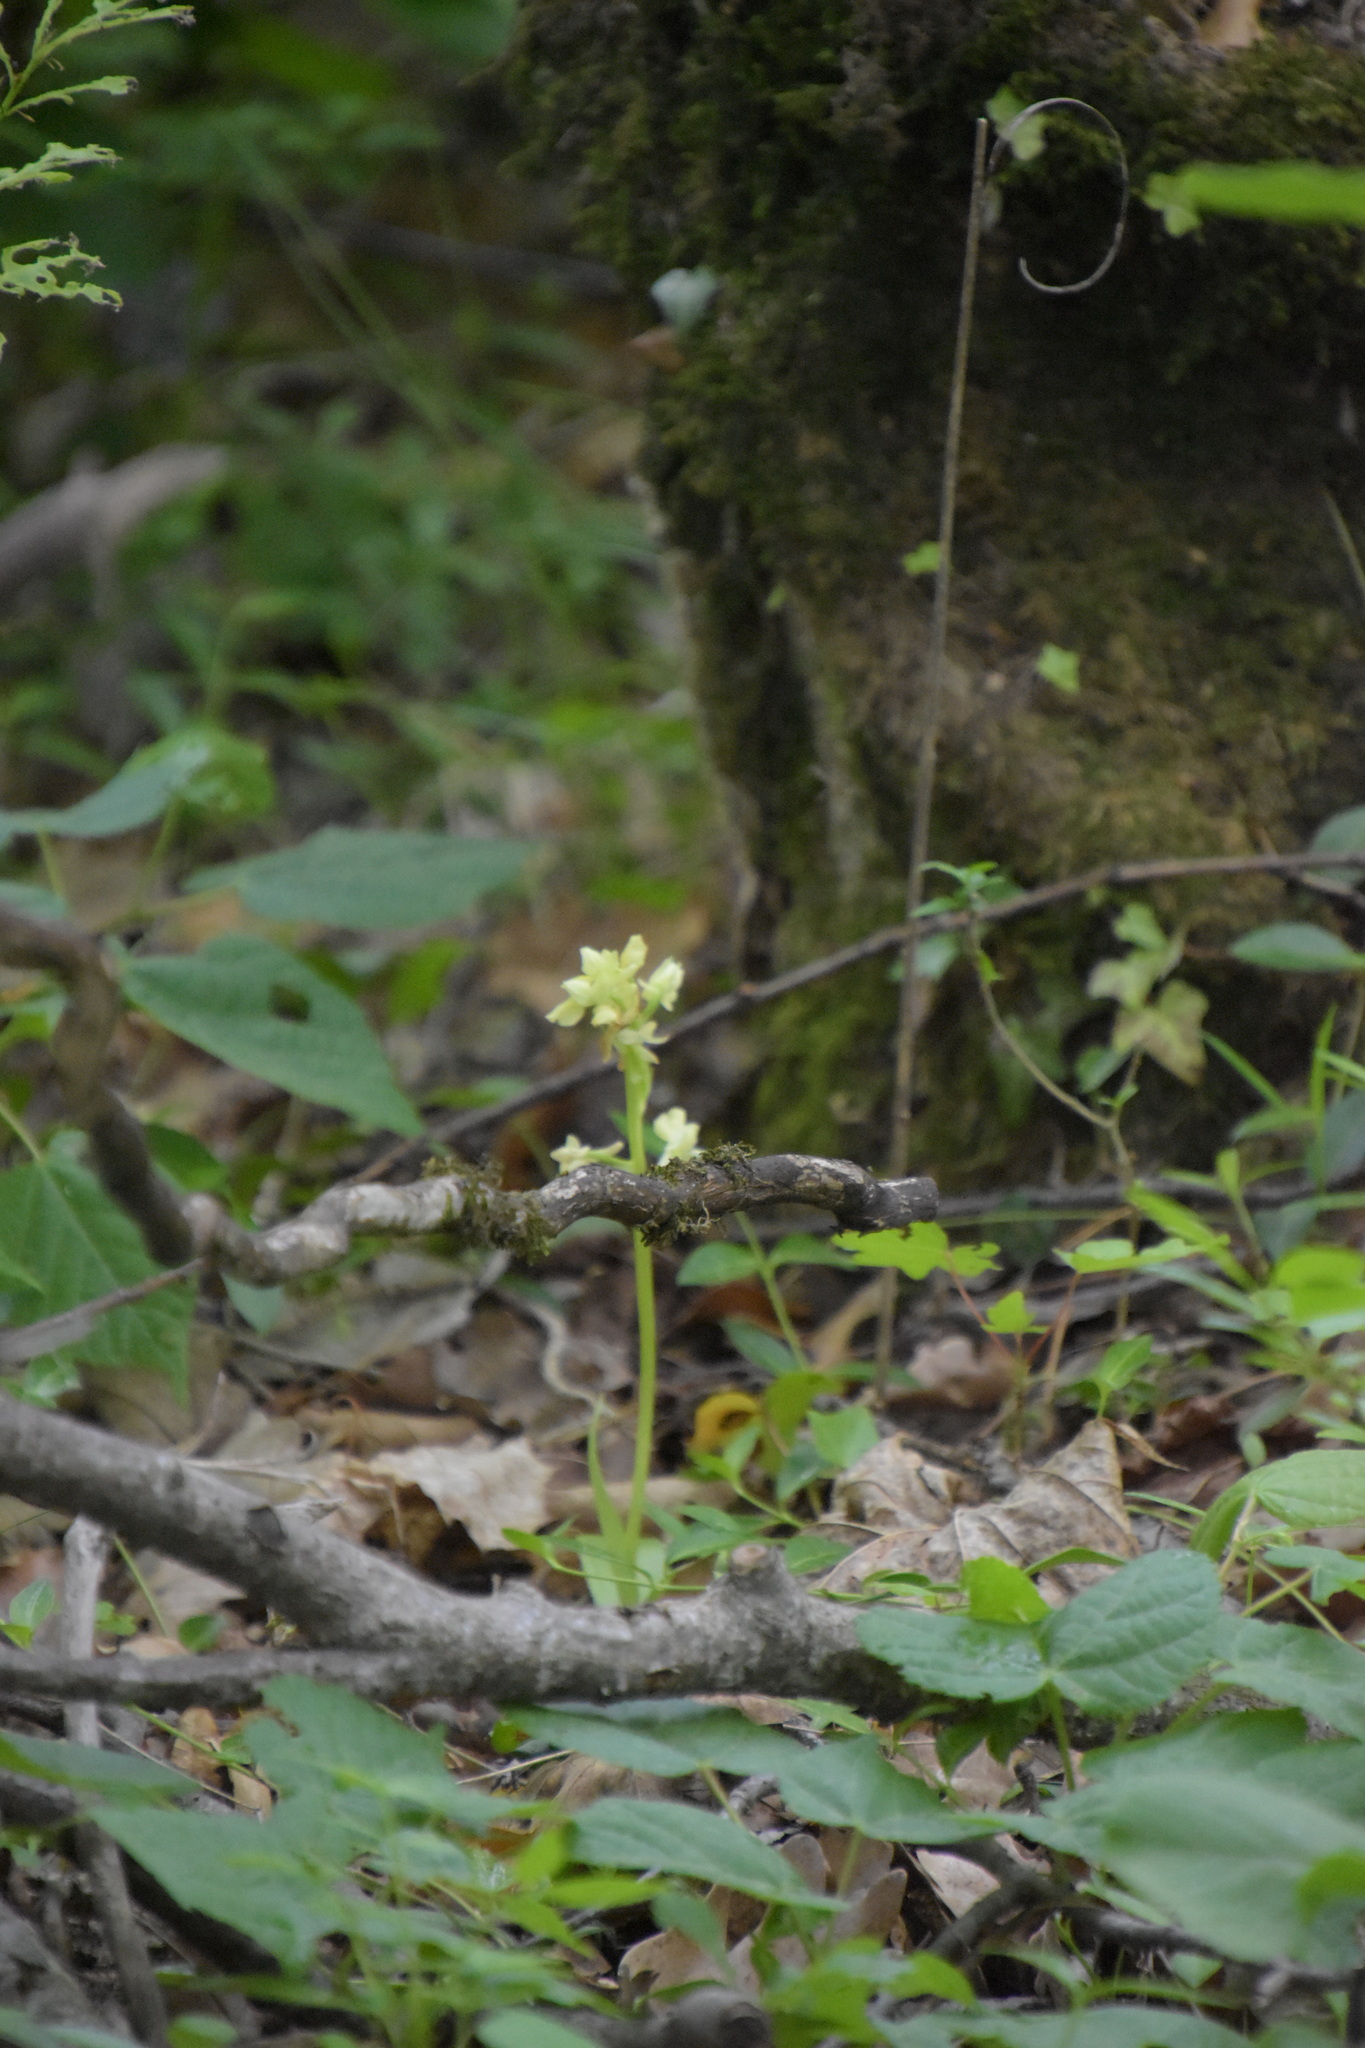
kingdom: Plantae
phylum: Tracheophyta
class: Liliopsida
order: Asparagales
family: Orchidaceae
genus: Orchis
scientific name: Orchis pallens
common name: Pale-flowered orchid
